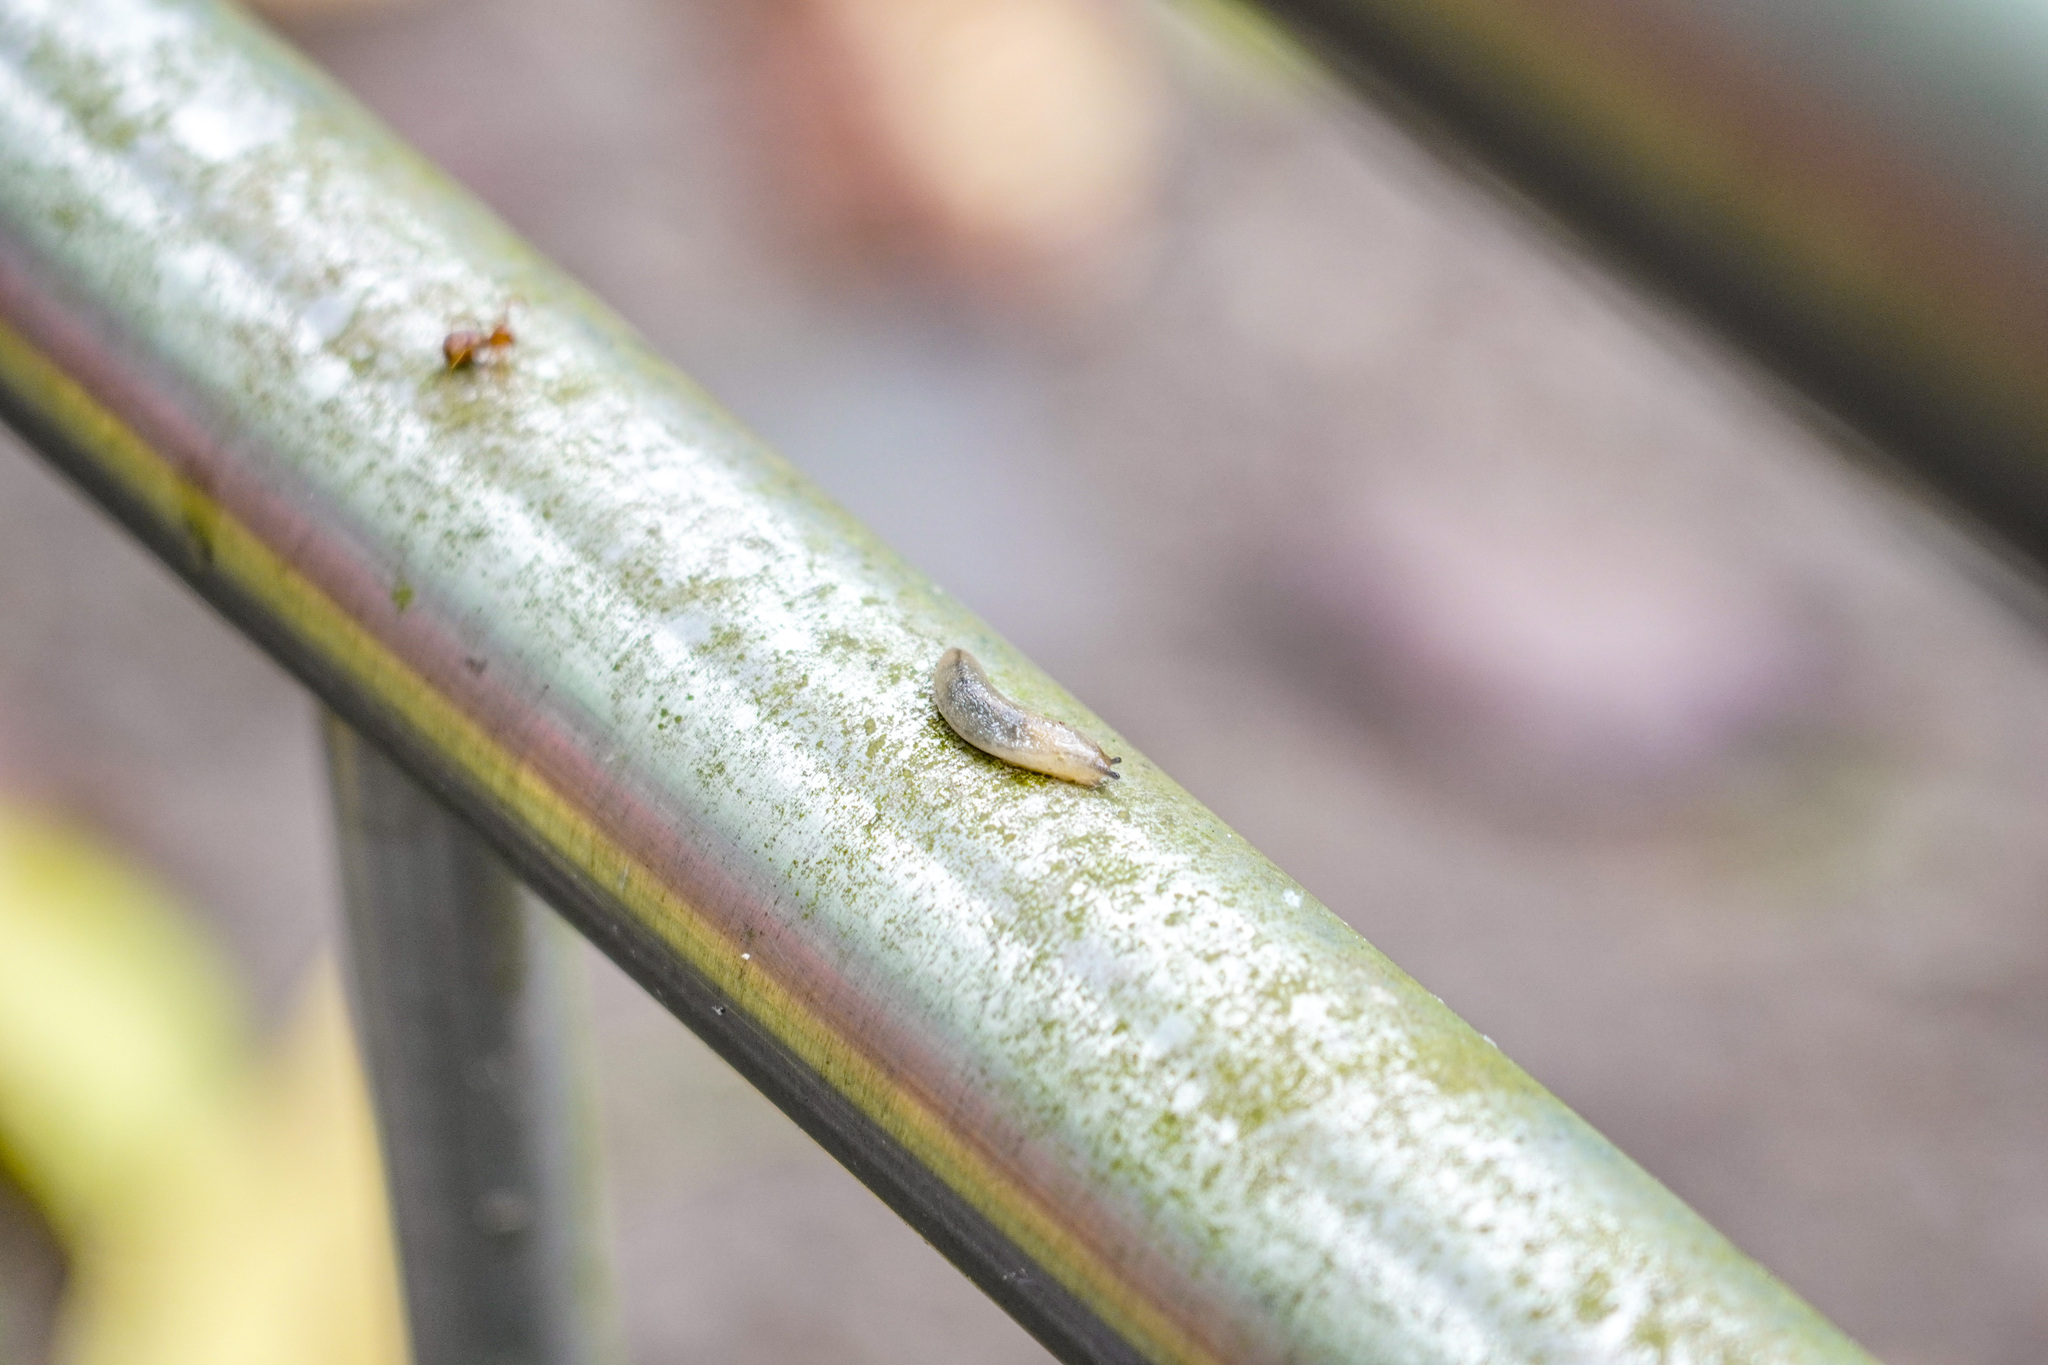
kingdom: Animalia
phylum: Mollusca
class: Gastropoda
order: Stylommatophora
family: Philomycidae
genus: Meghimatium
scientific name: Meghimatium bilineatum
